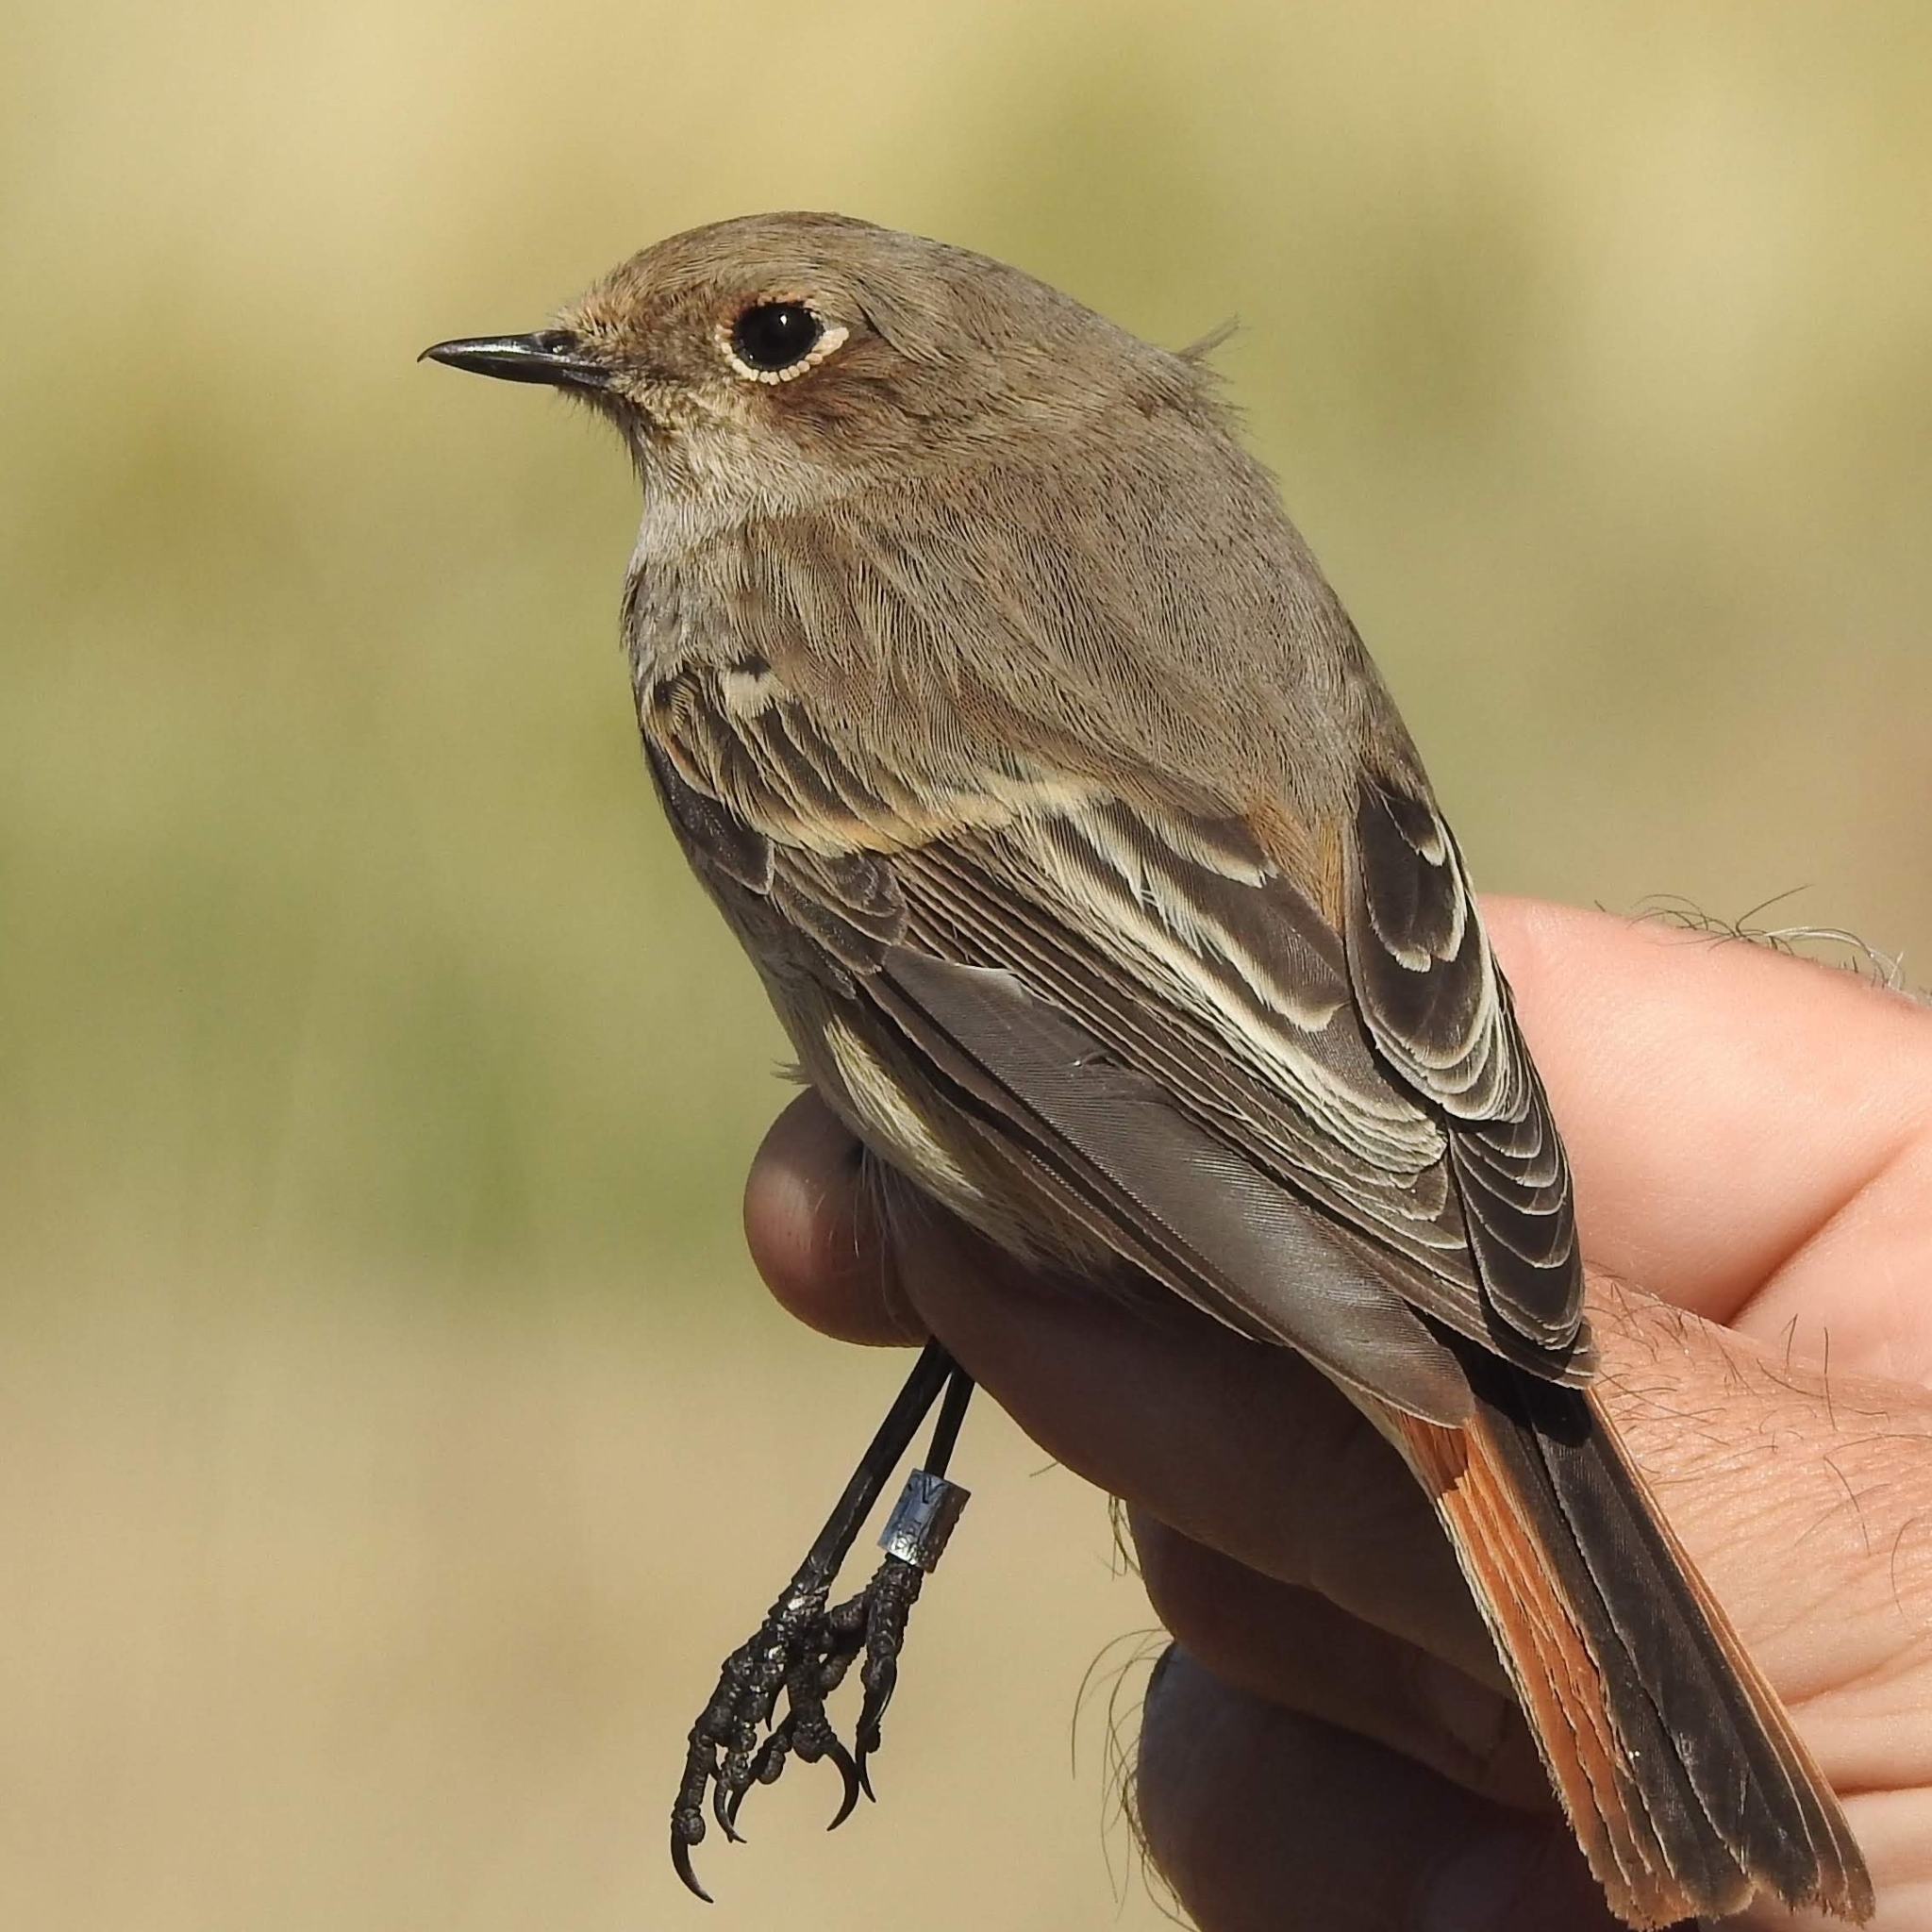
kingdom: Animalia
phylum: Chordata
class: Aves
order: Passeriformes
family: Muscicapidae
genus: Phoenicurus
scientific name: Phoenicurus erythronotus
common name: Eversmann's redstart
